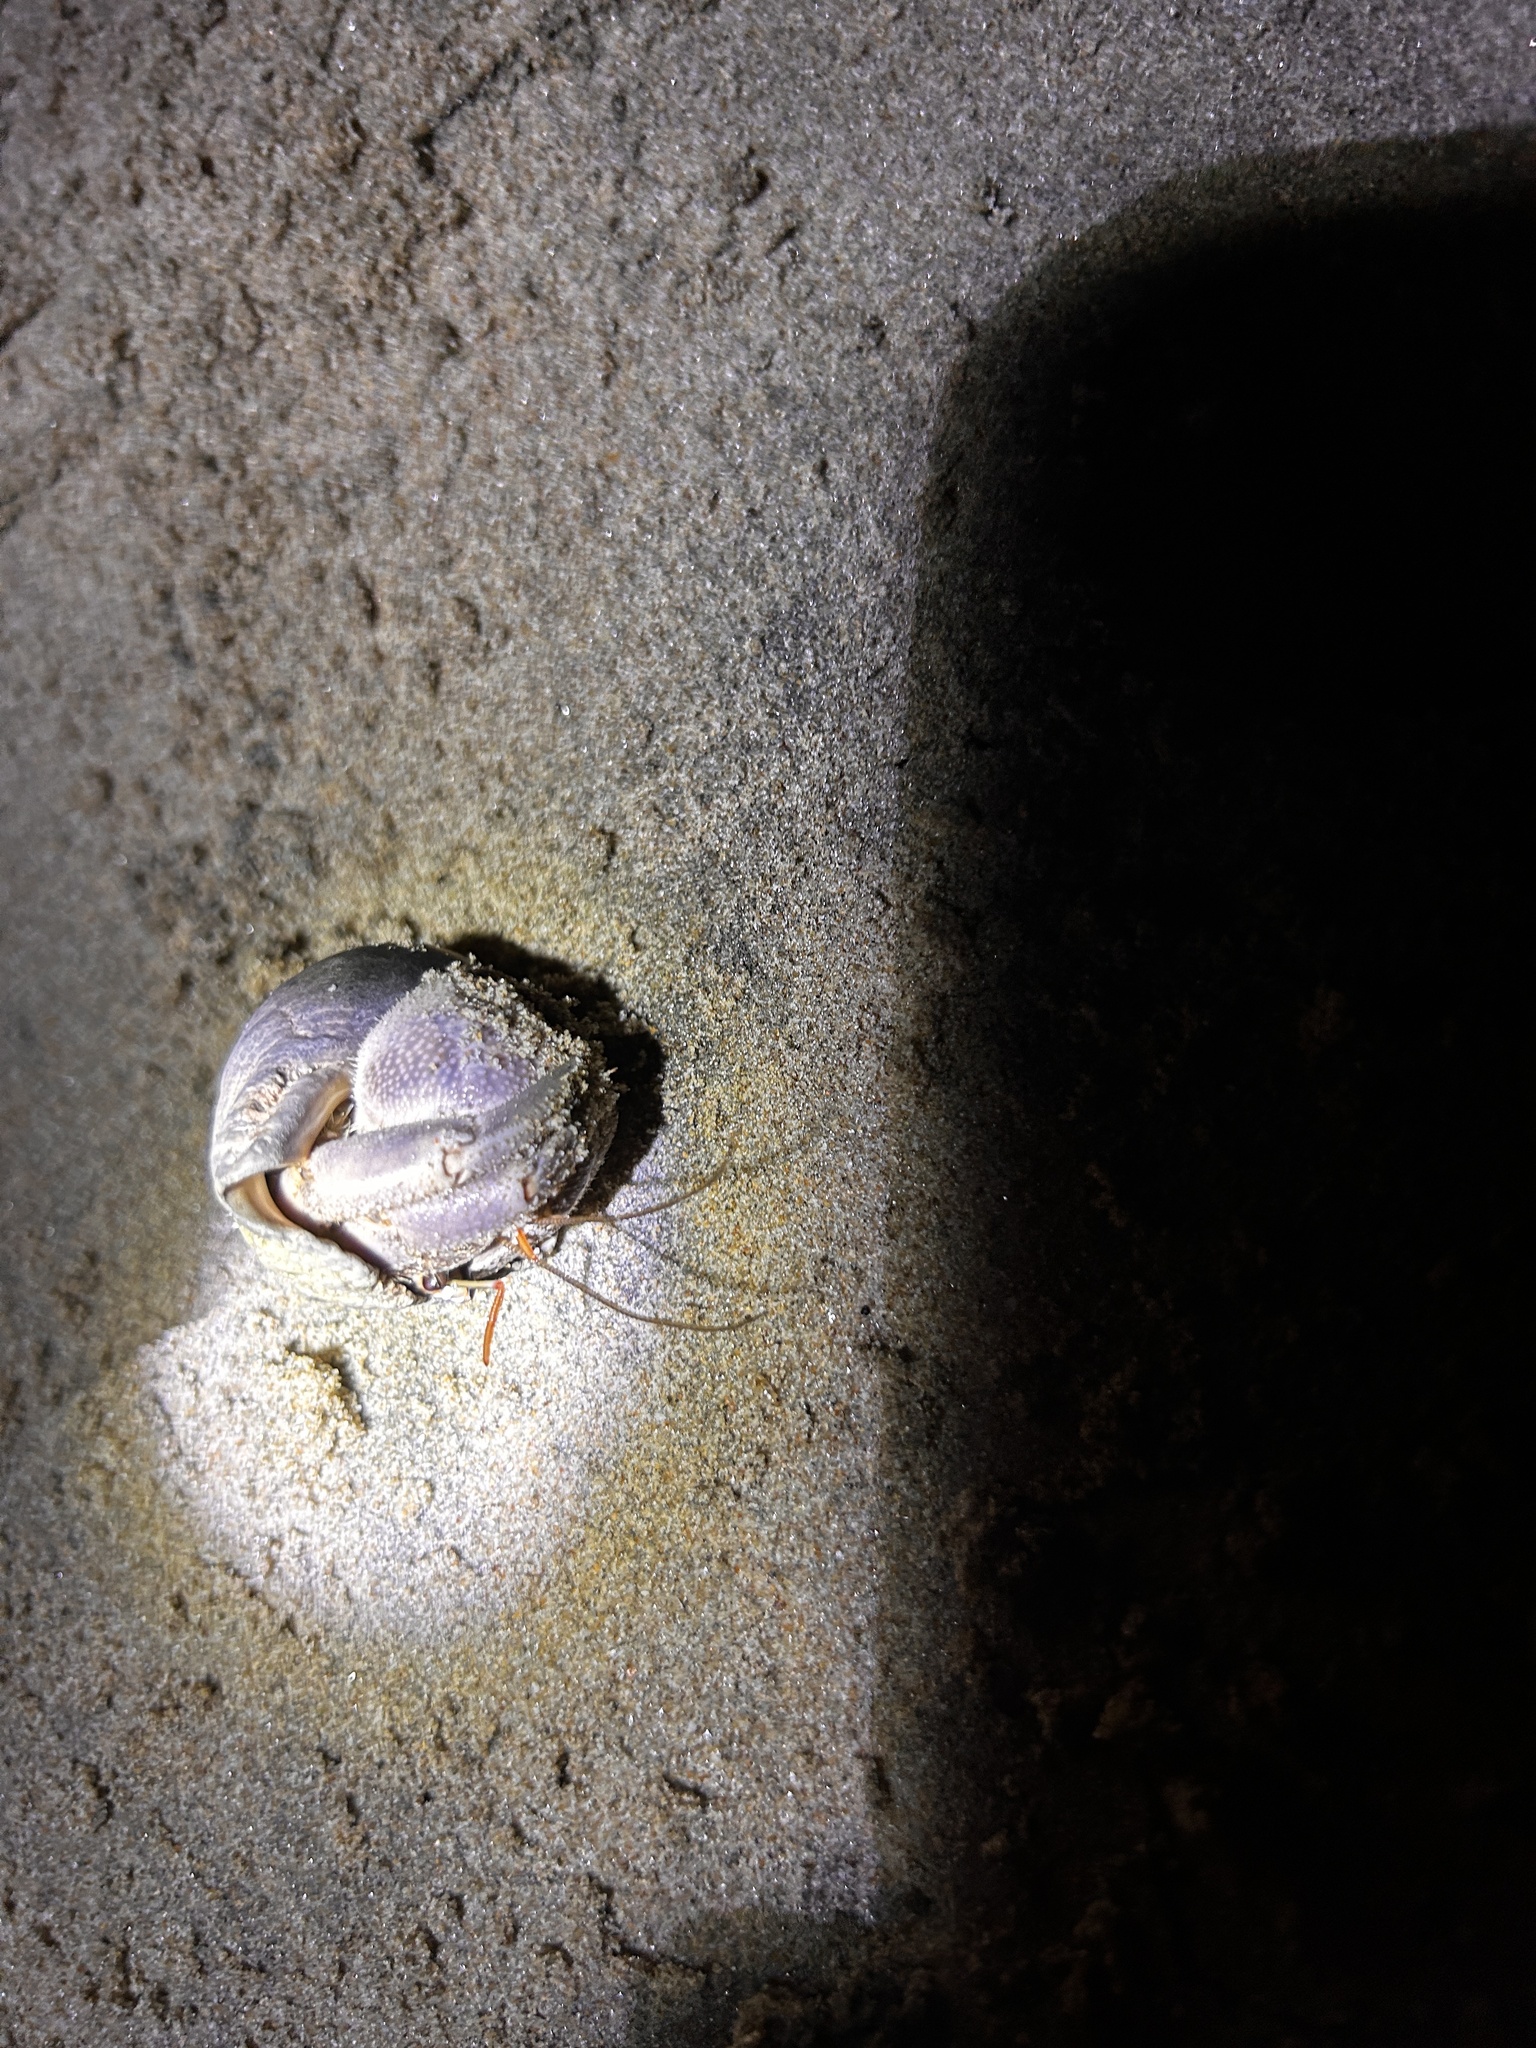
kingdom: Animalia
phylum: Arthropoda
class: Malacostraca
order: Decapoda
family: Coenobitidae
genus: Coenobita
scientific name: Coenobita violascens
